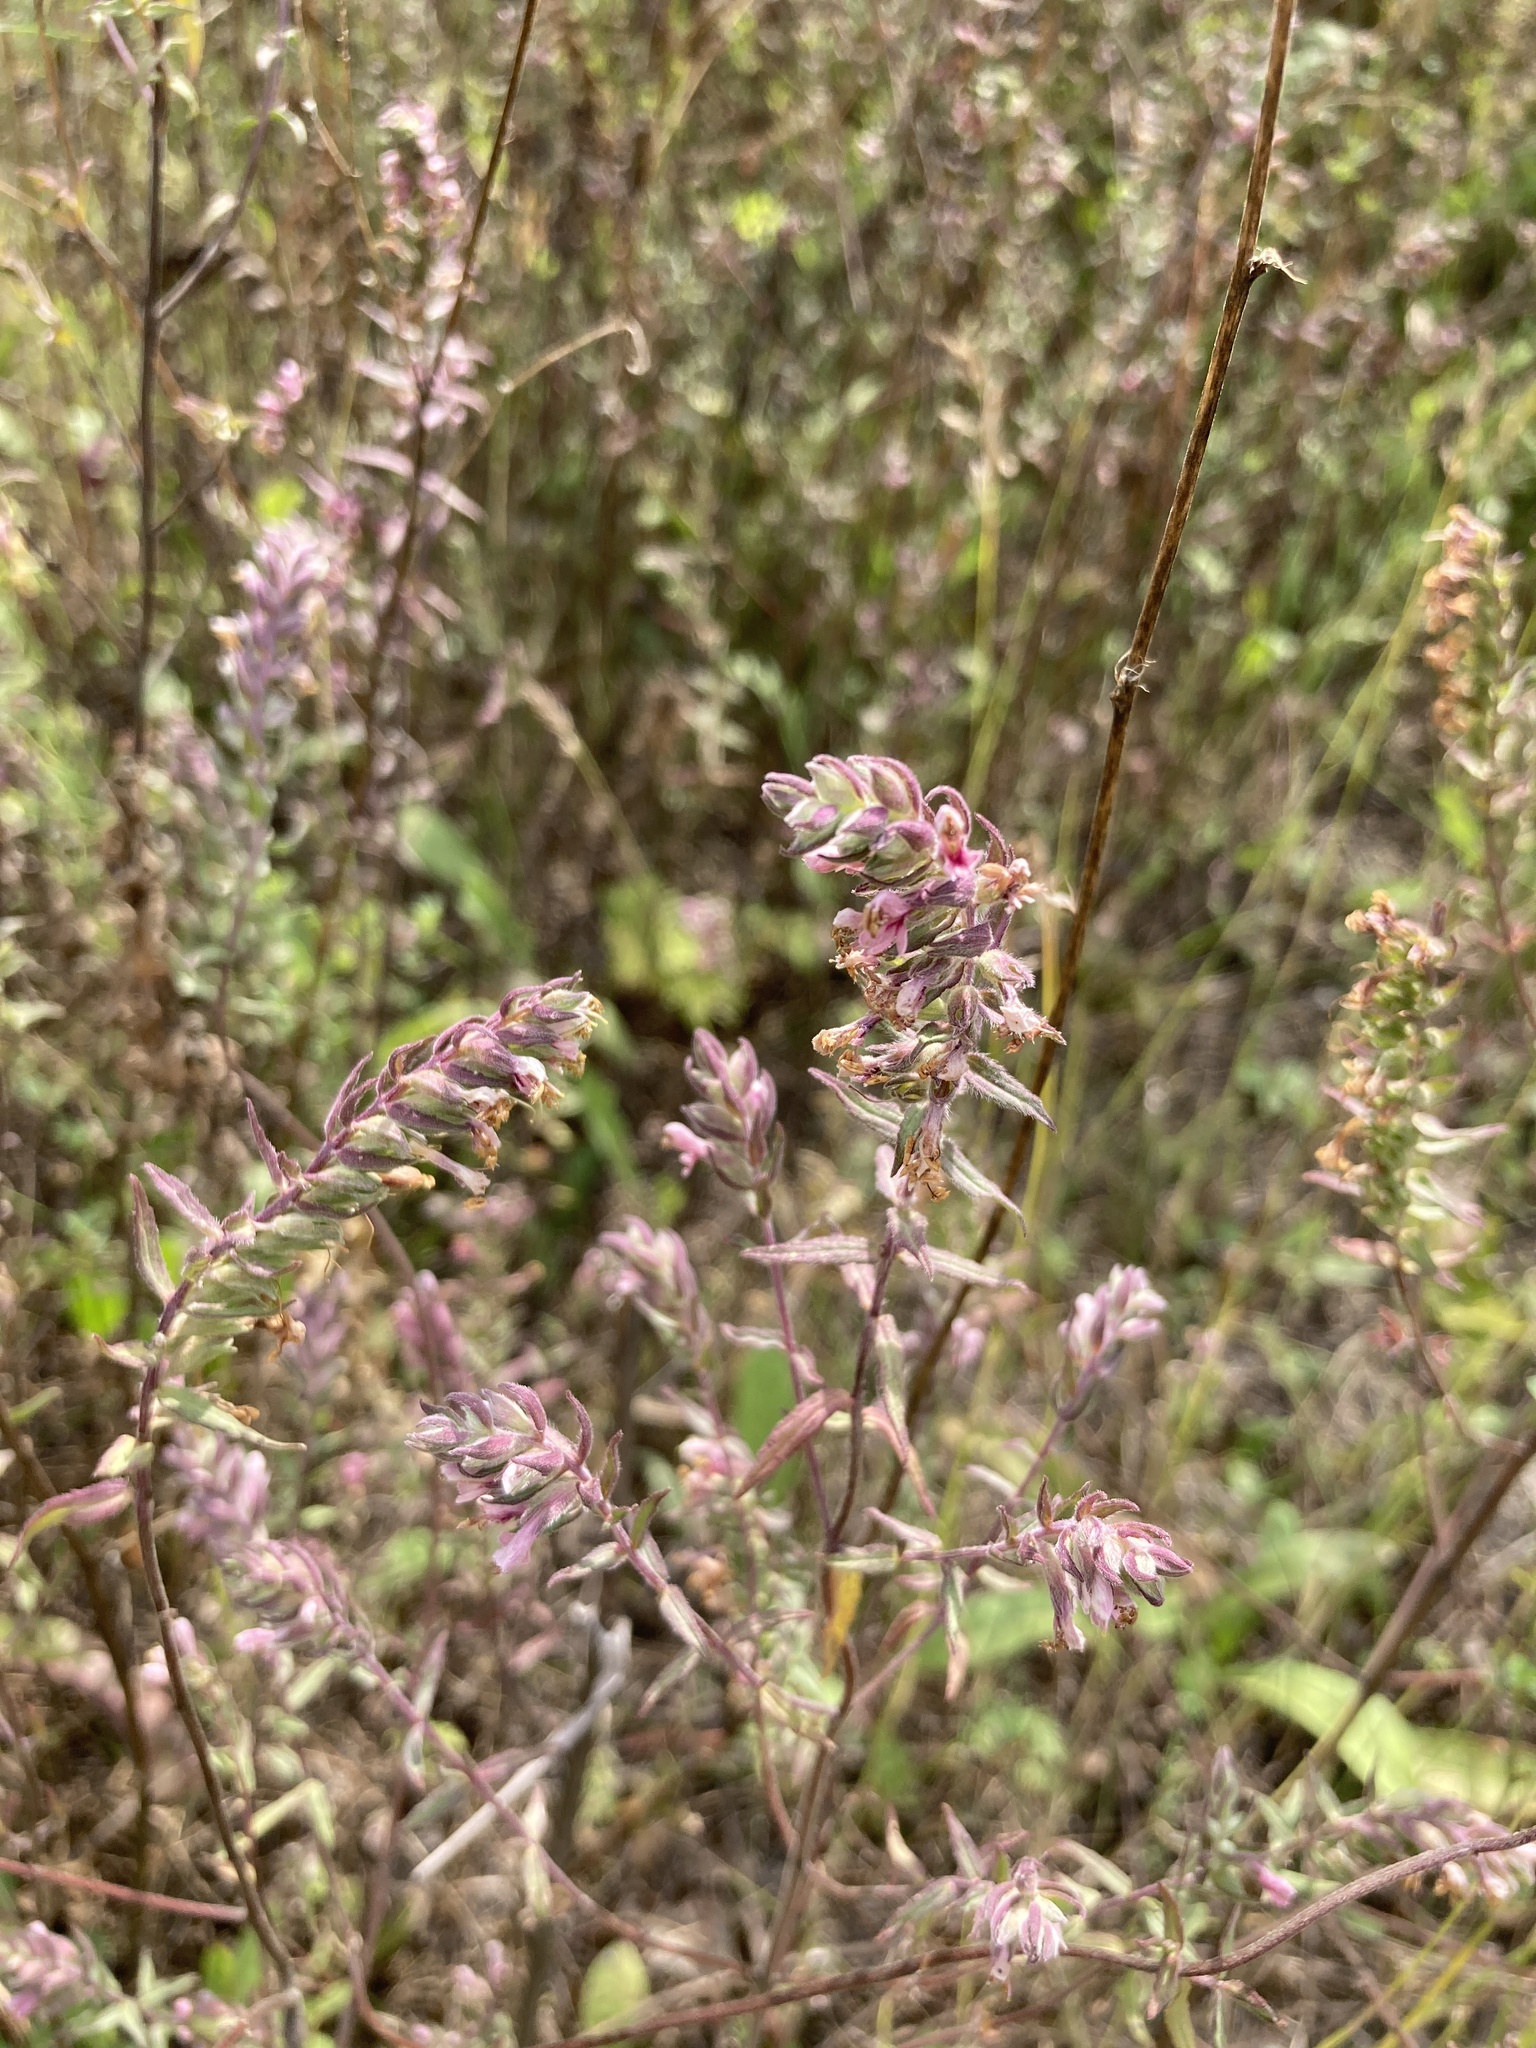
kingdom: Plantae
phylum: Tracheophyta
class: Magnoliopsida
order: Lamiales
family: Orobanchaceae
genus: Odontites
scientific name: Odontites vulgaris
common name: Broomrape
